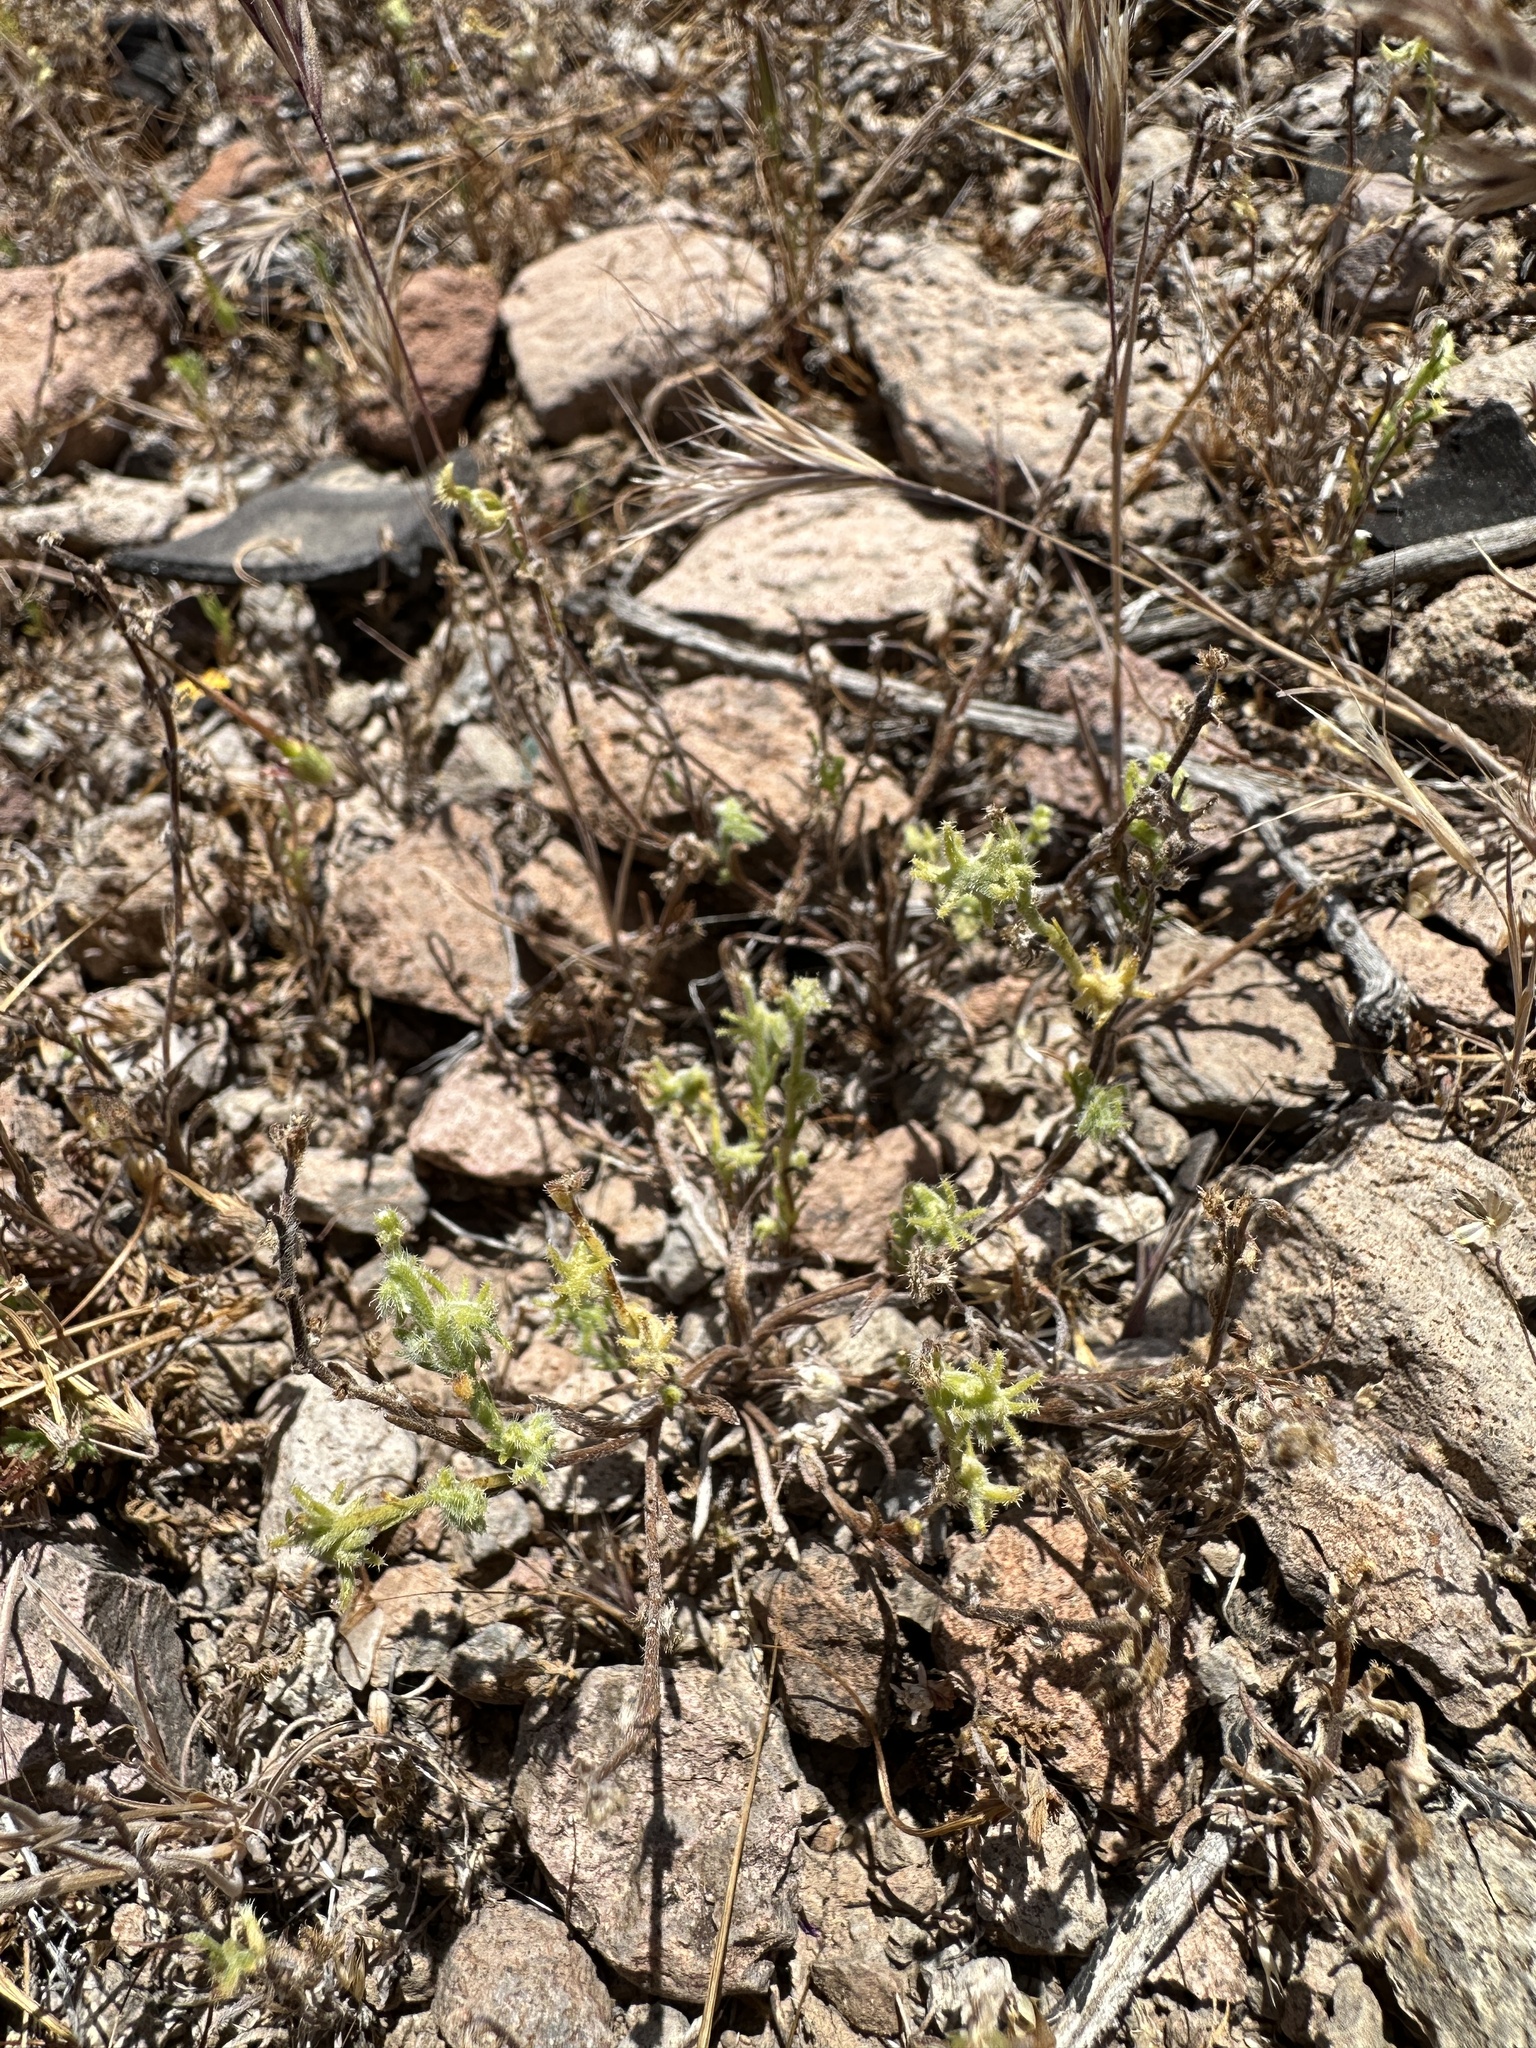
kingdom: Plantae
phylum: Tracheophyta
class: Magnoliopsida
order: Boraginales
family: Boraginaceae
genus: Harpagonella
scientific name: Harpagonella palmeri
